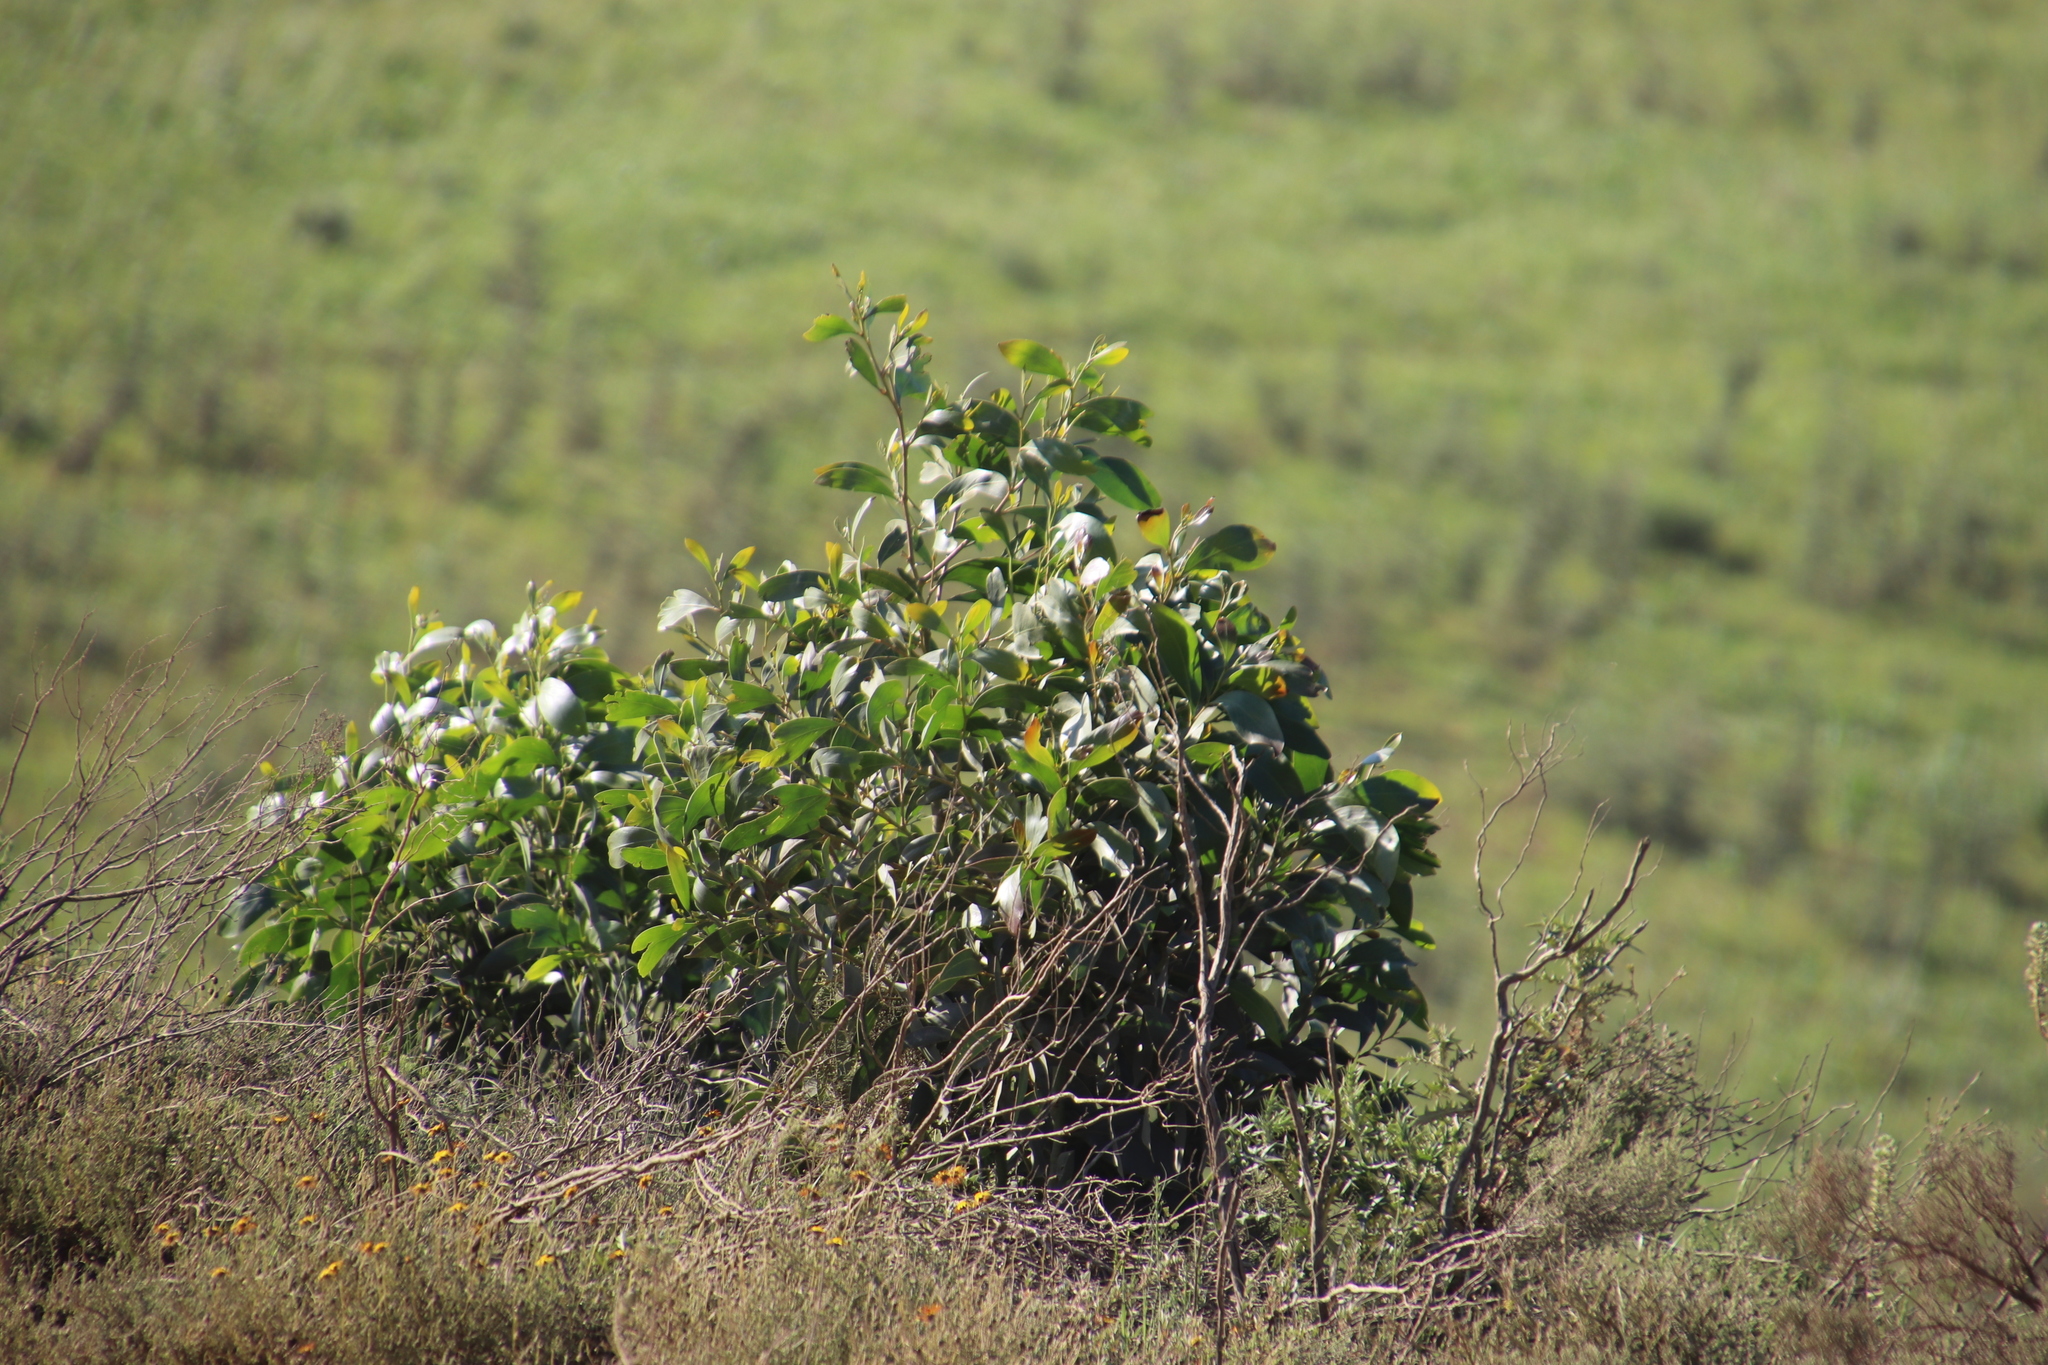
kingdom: Plantae
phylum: Tracheophyta
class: Magnoliopsida
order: Fabales
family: Fabaceae
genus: Acacia
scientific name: Acacia pycnantha
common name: Golden wattle
